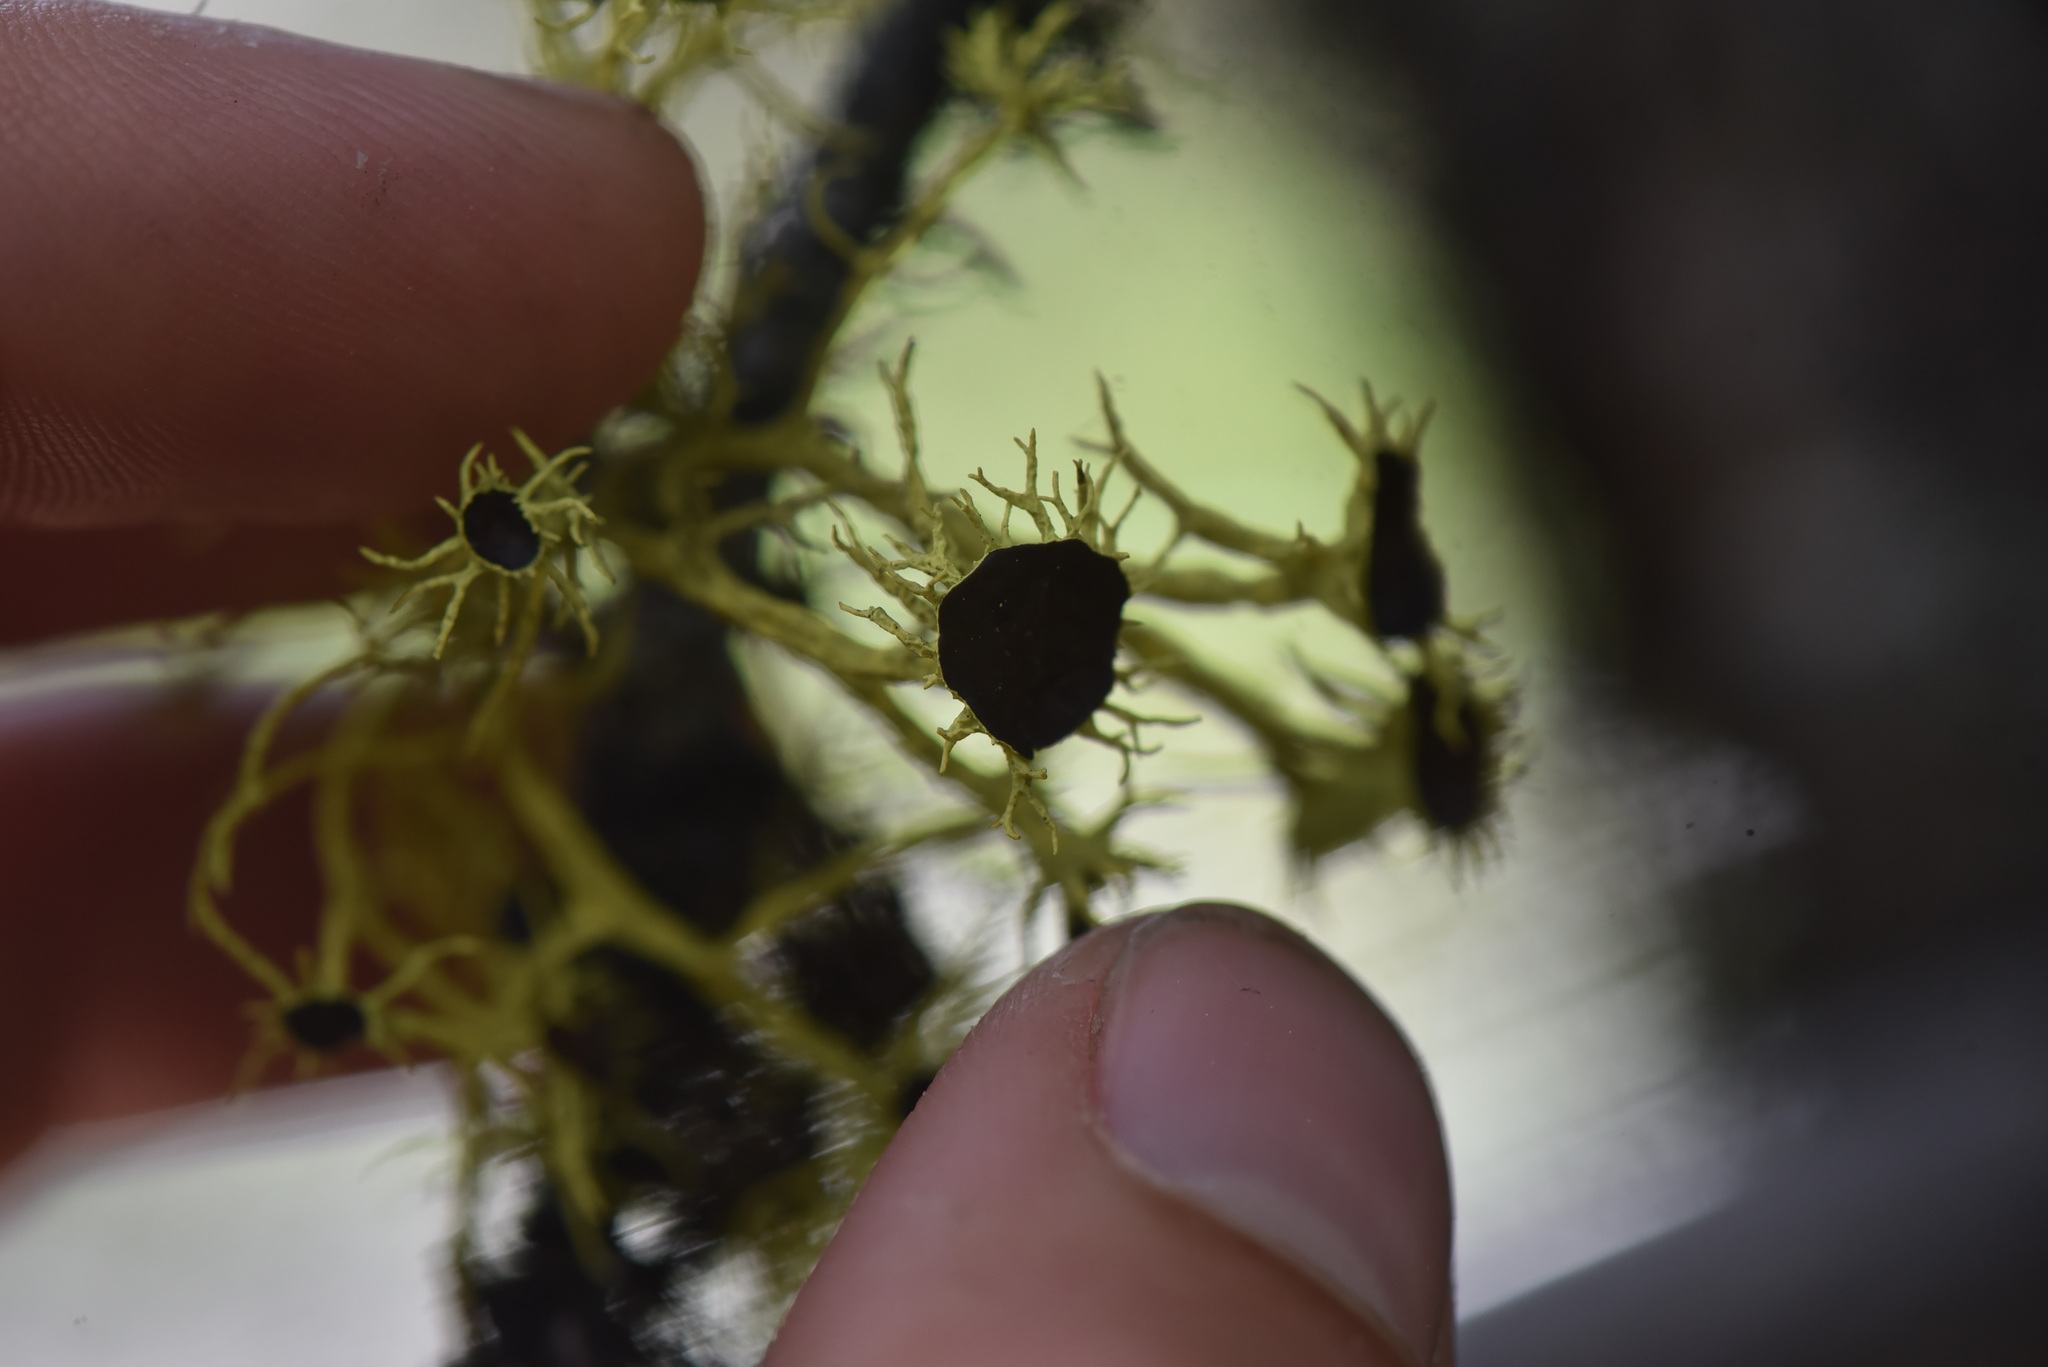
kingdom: Fungi
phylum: Ascomycota
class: Lecanoromycetes
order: Lecanorales
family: Parmeliaceae
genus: Letharia
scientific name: Letharia columbiana
